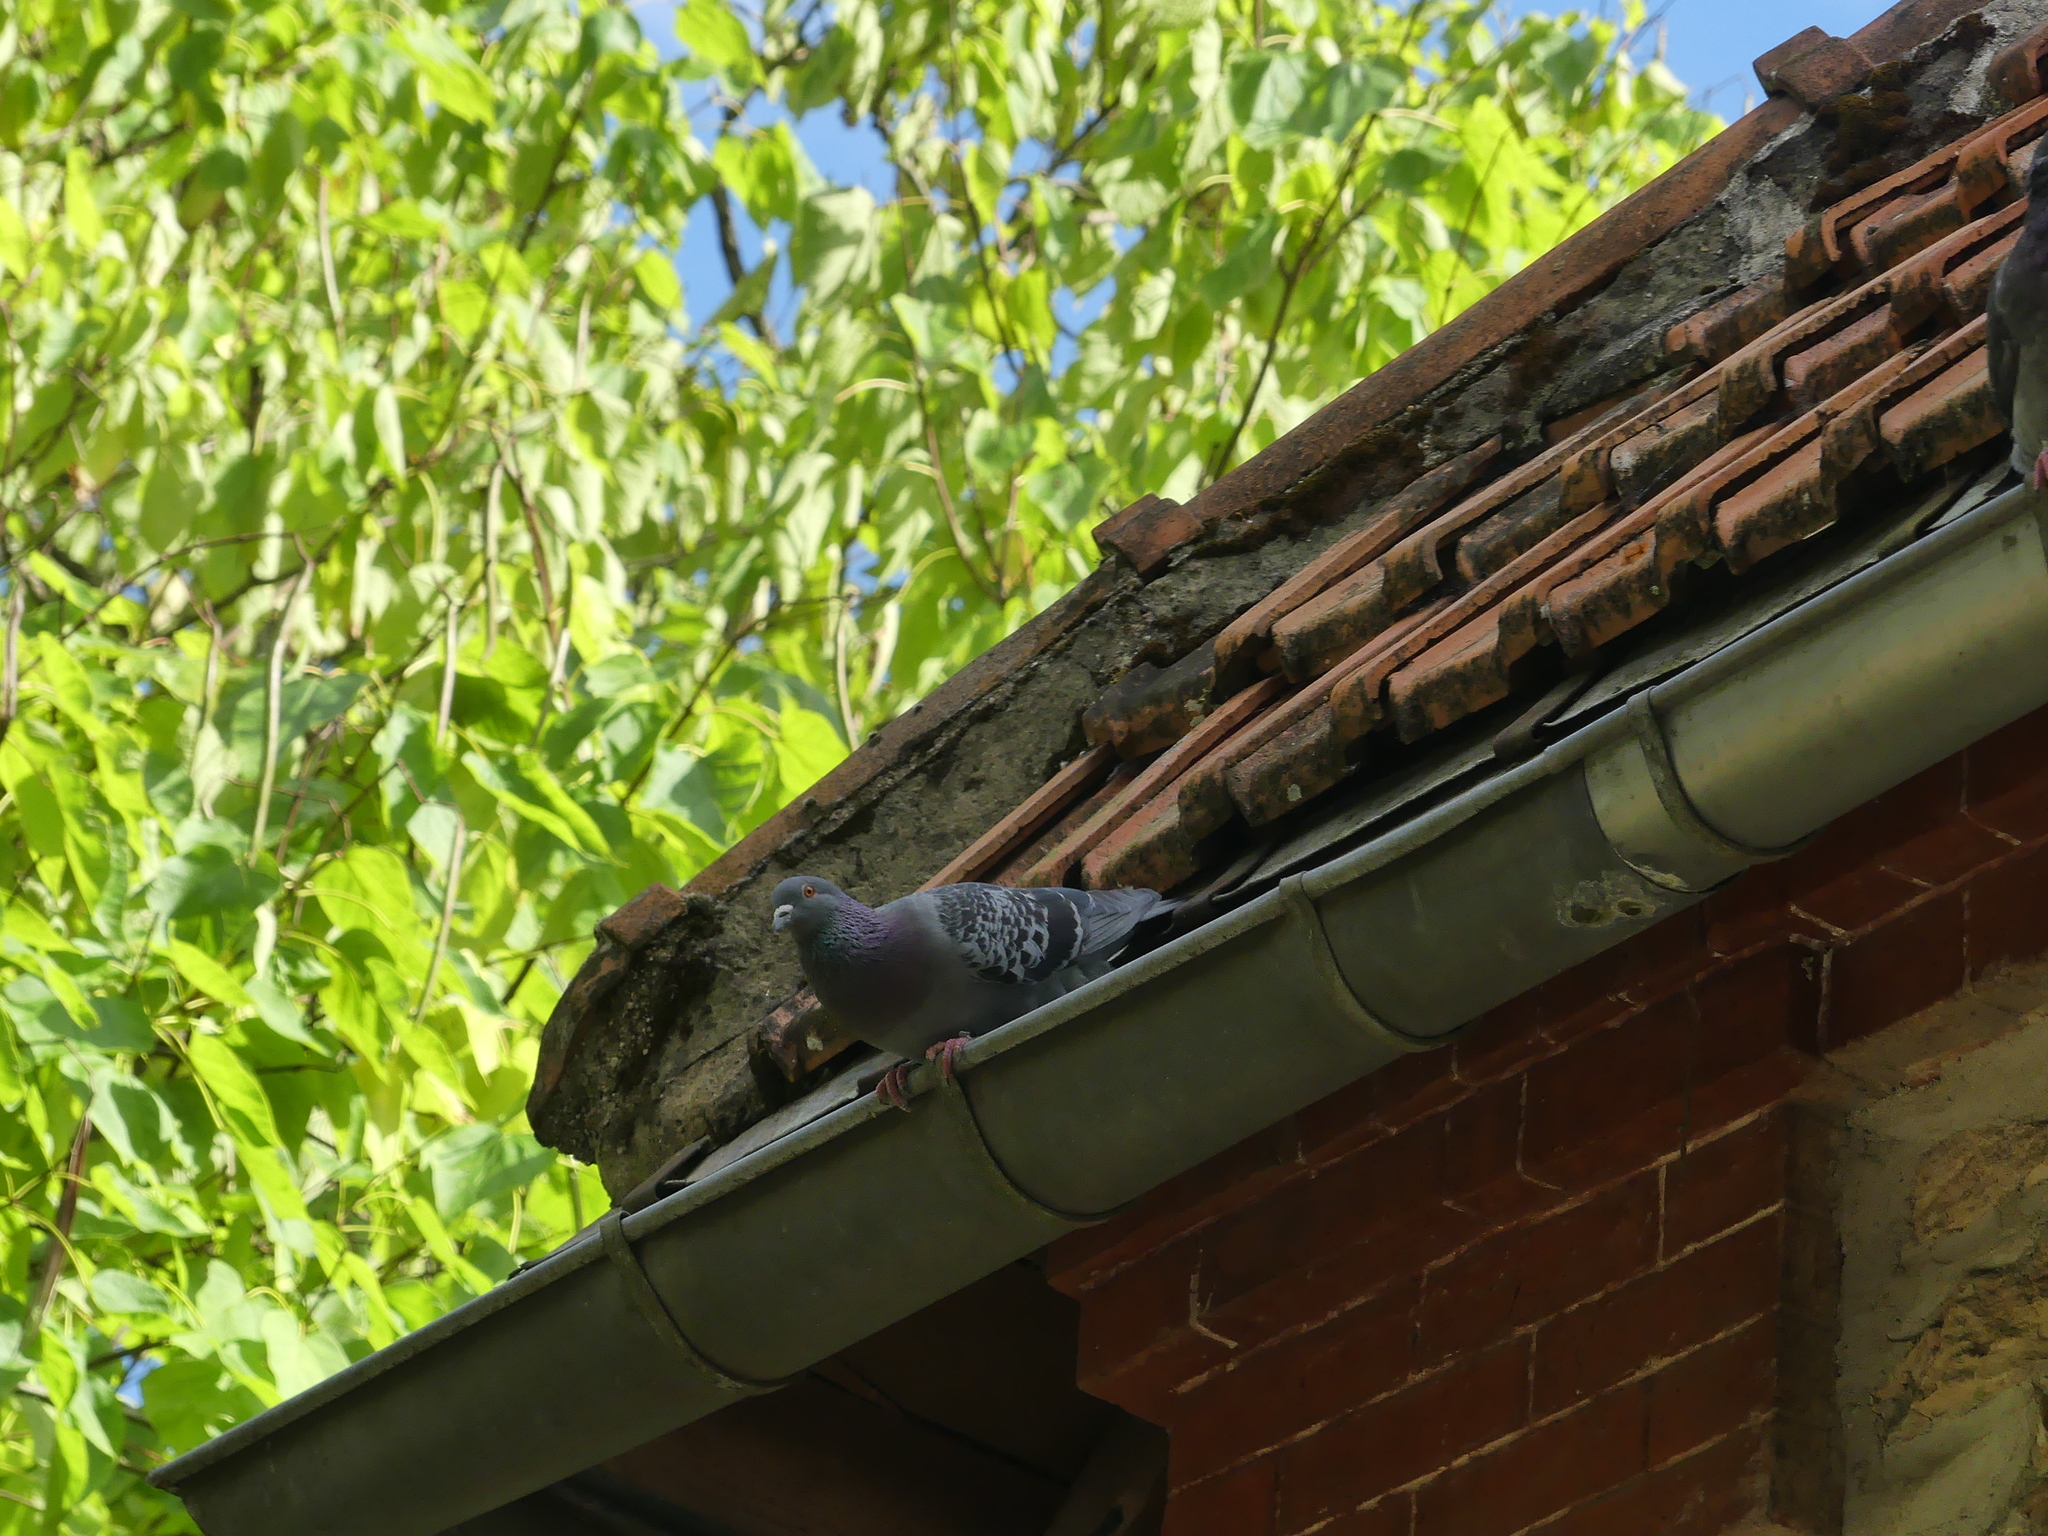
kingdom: Animalia
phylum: Chordata
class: Aves
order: Columbiformes
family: Columbidae
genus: Columba
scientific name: Columba livia
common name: Rock pigeon
